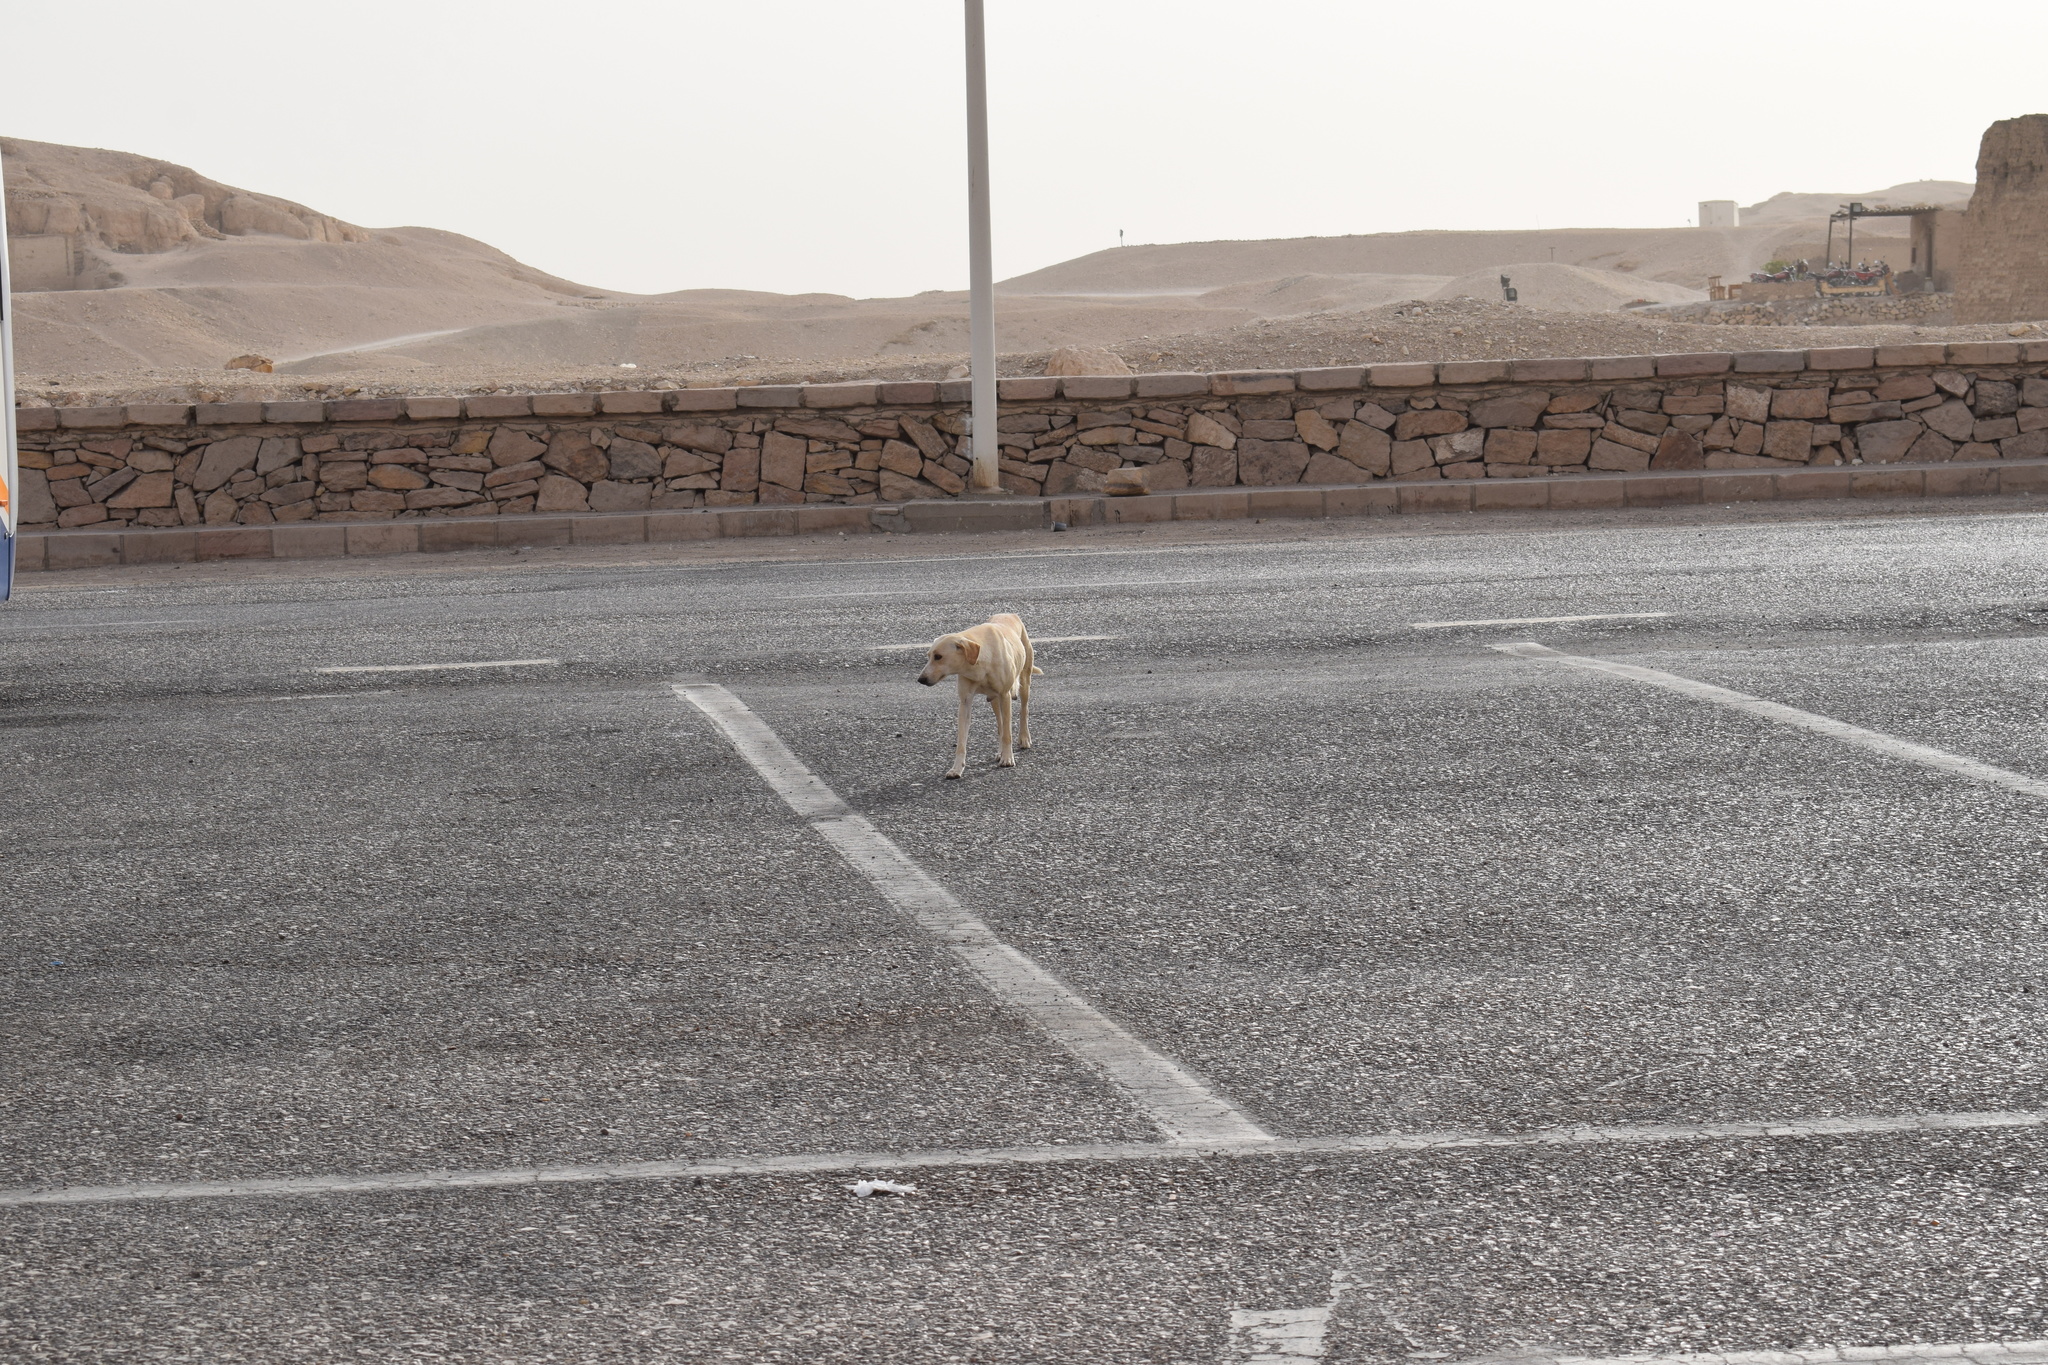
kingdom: Animalia
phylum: Chordata
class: Mammalia
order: Carnivora
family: Canidae
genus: Canis
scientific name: Canis lupus
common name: Gray wolf
